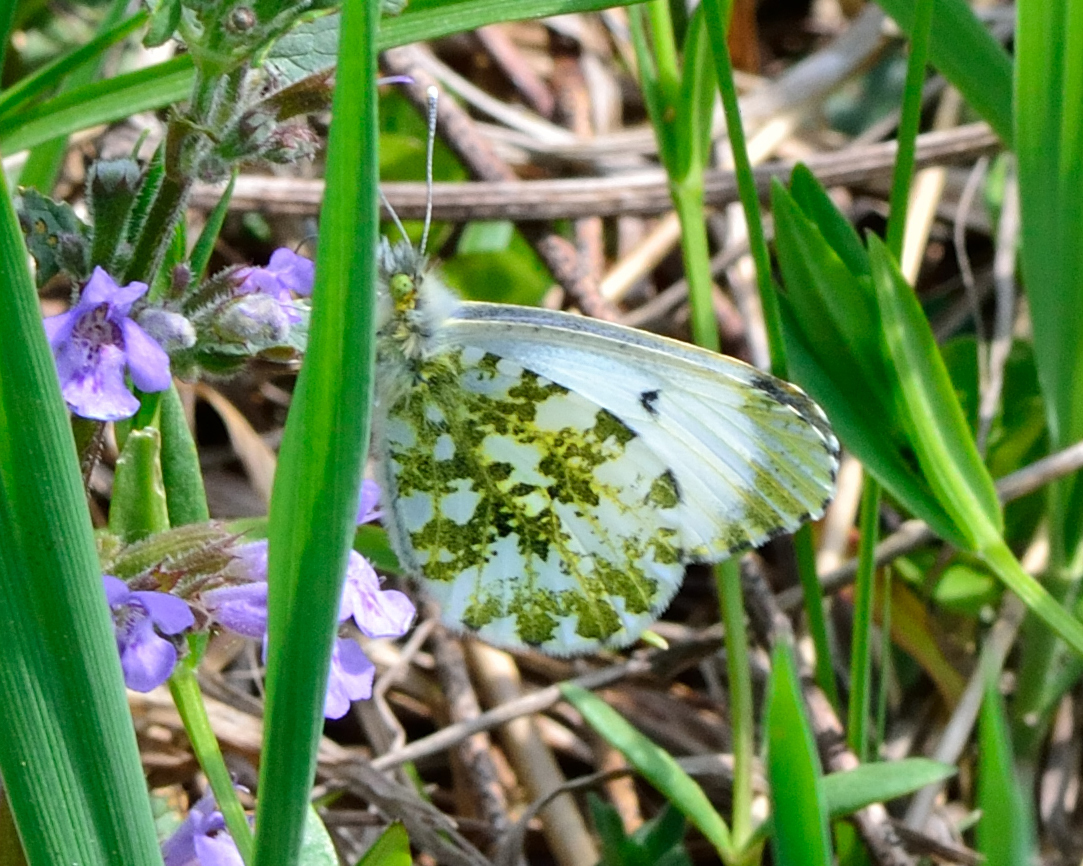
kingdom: Animalia
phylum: Arthropoda
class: Insecta
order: Lepidoptera
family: Pieridae
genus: Anthocharis
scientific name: Anthocharis cardamines
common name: Orange-tip
